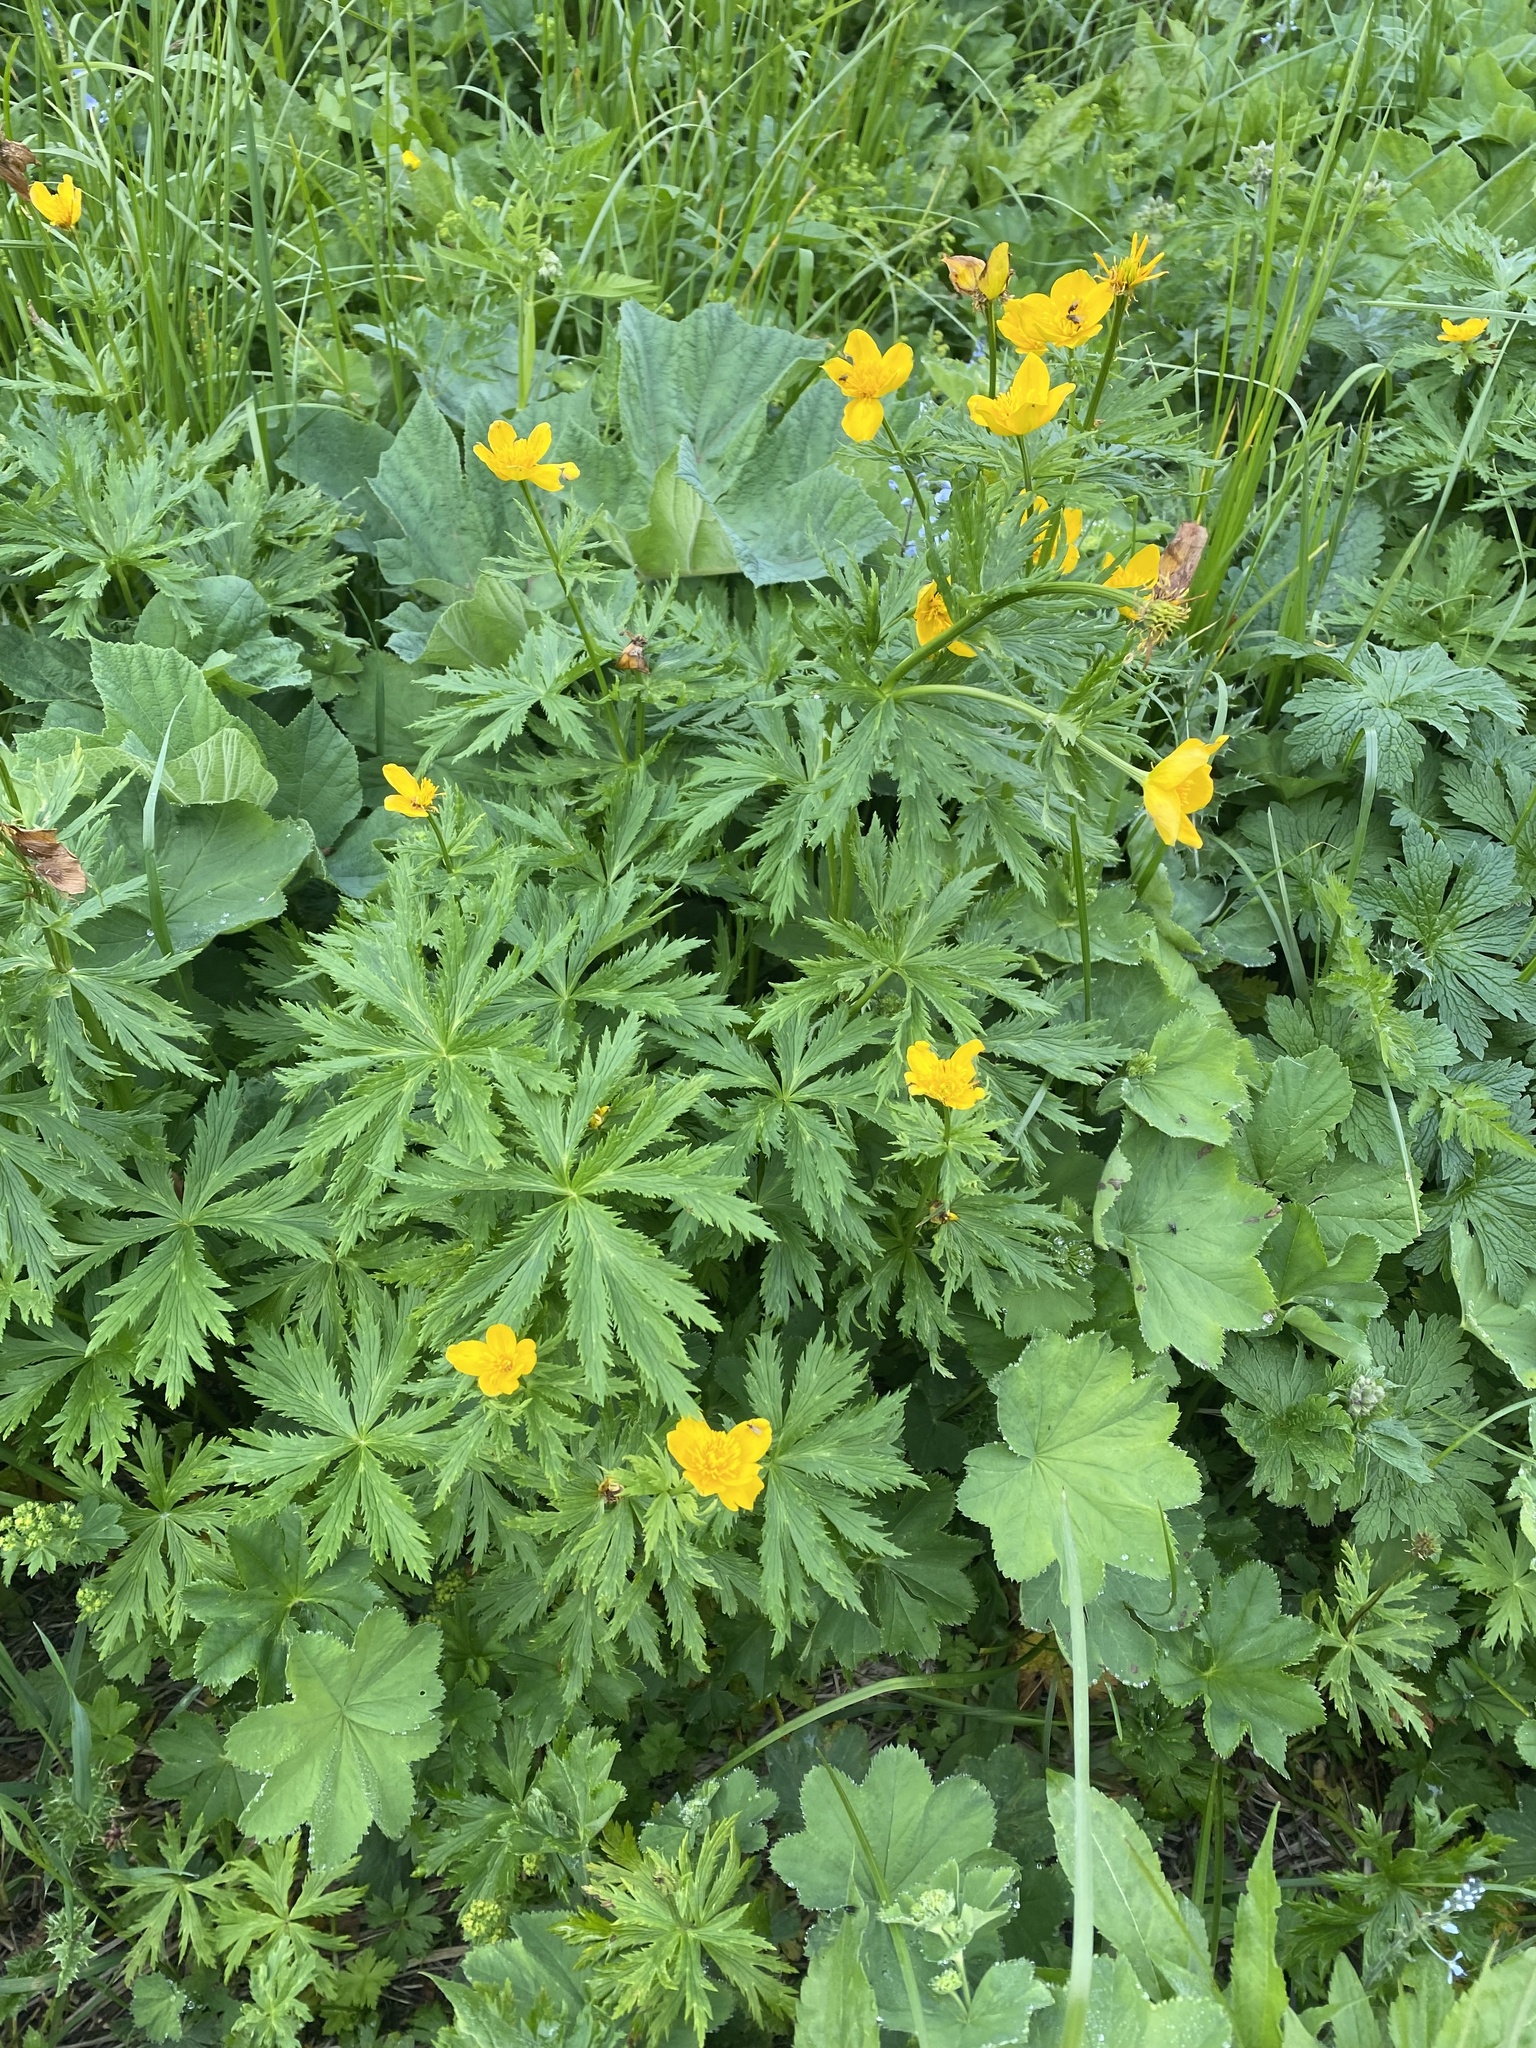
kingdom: Plantae
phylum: Tracheophyta
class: Magnoliopsida
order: Ranunculales
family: Ranunculaceae
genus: Trollius
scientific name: Trollius ranunculinus
